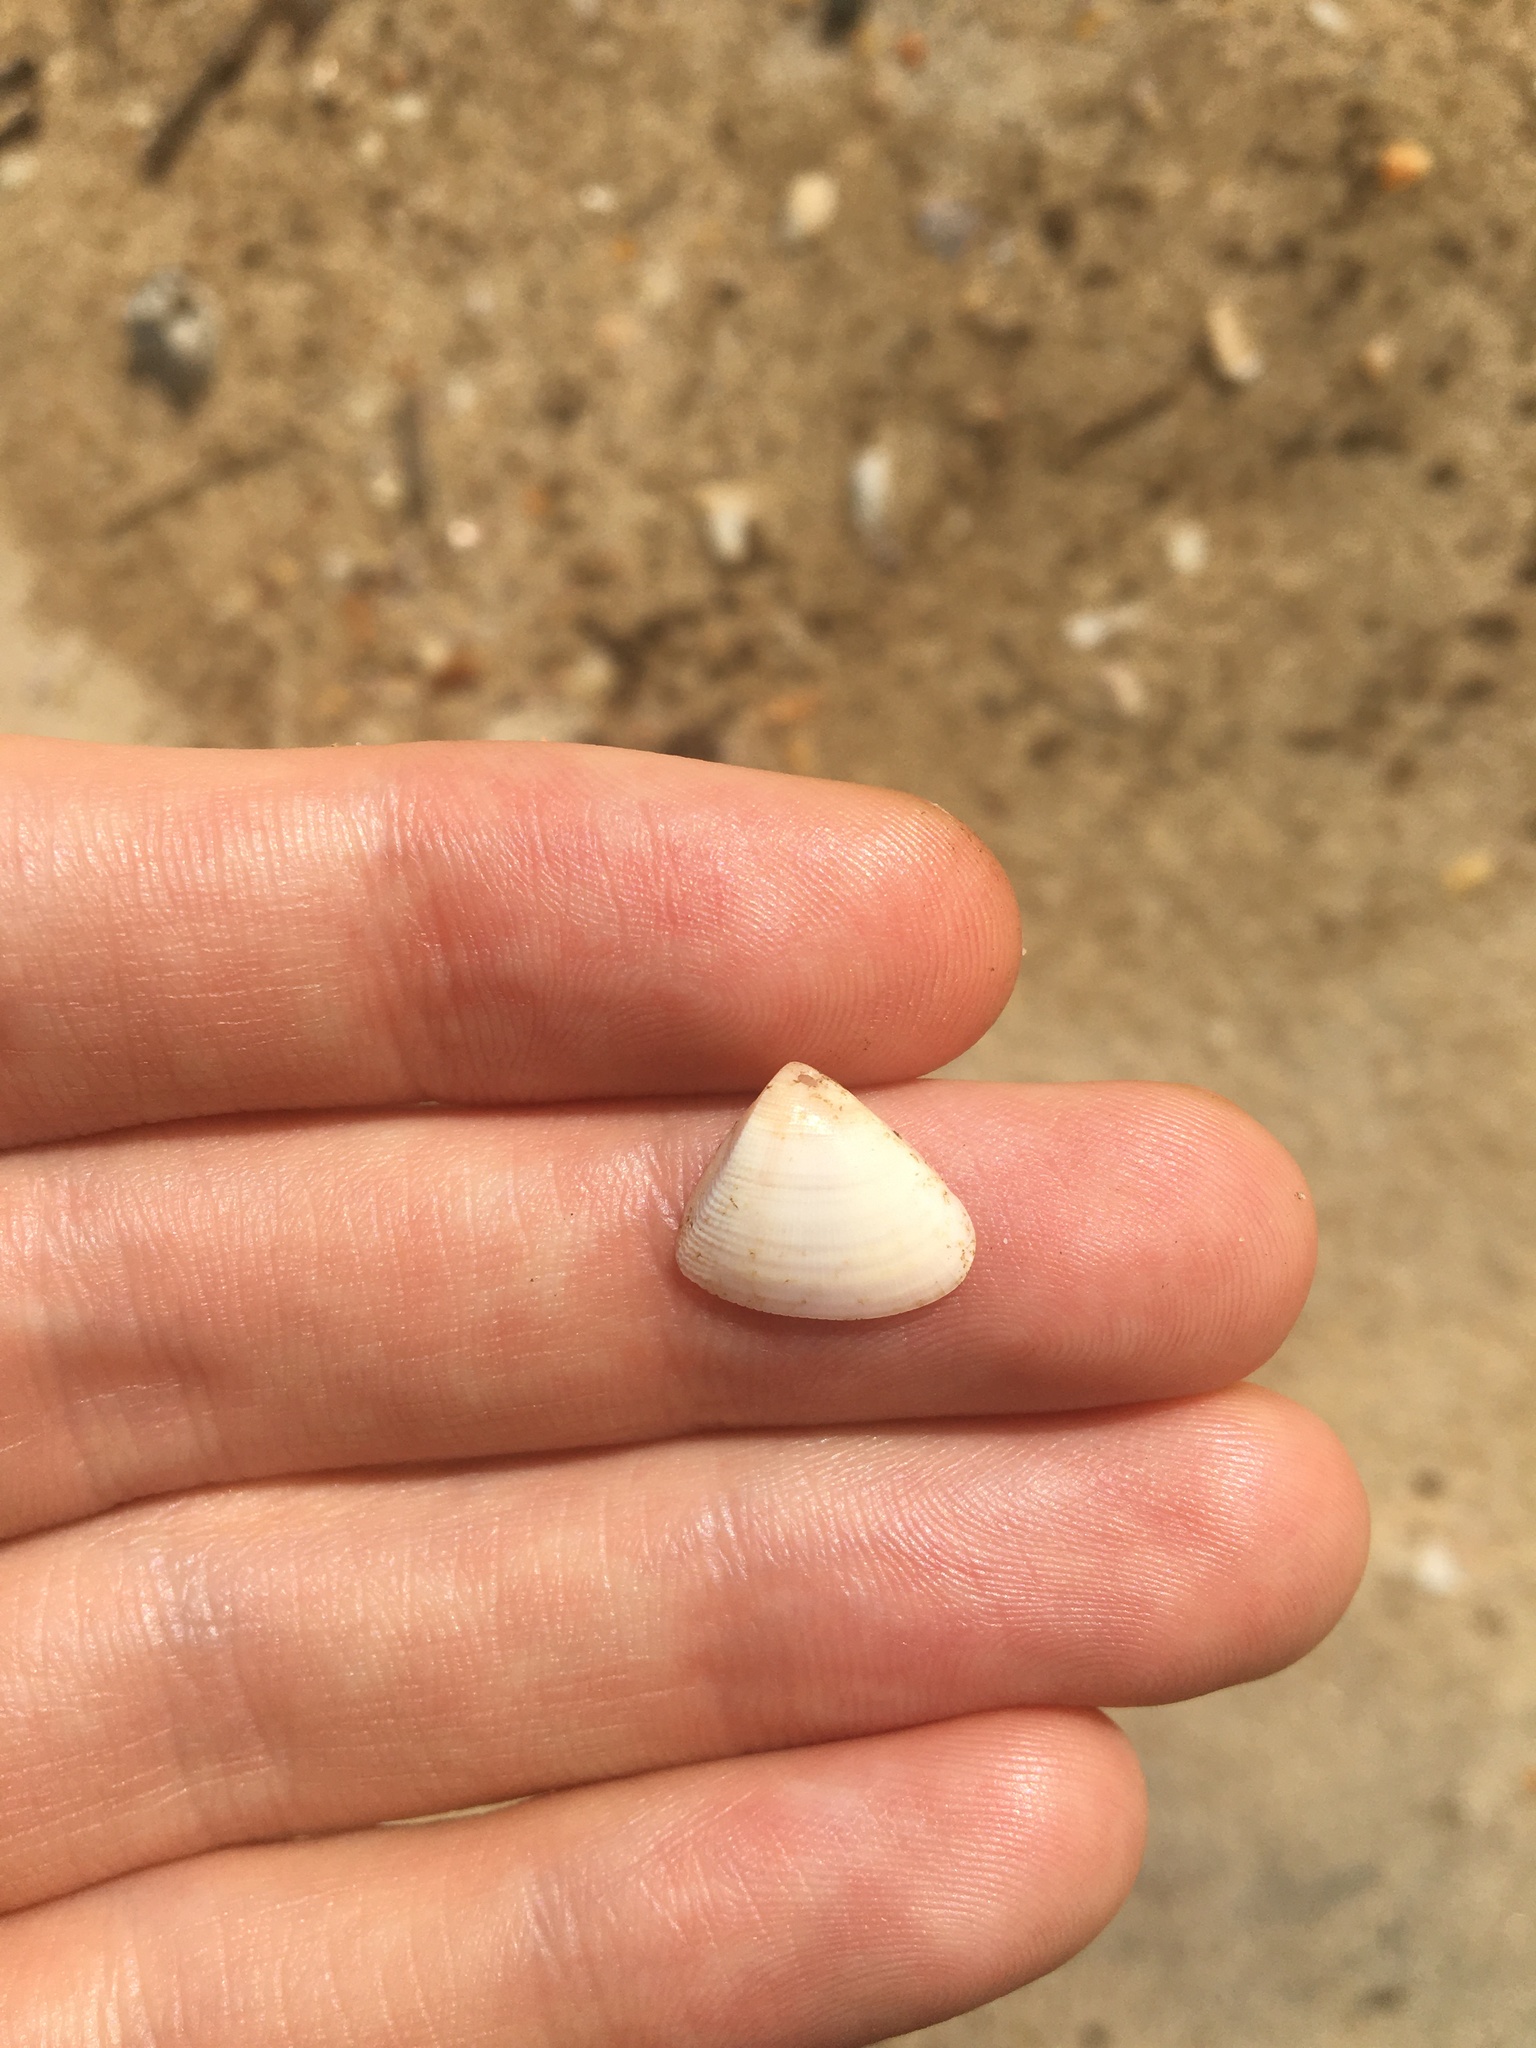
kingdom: Animalia
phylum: Mollusca
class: Bivalvia
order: Cardiida
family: Donacidae
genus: Donax
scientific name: Donax brazieri
